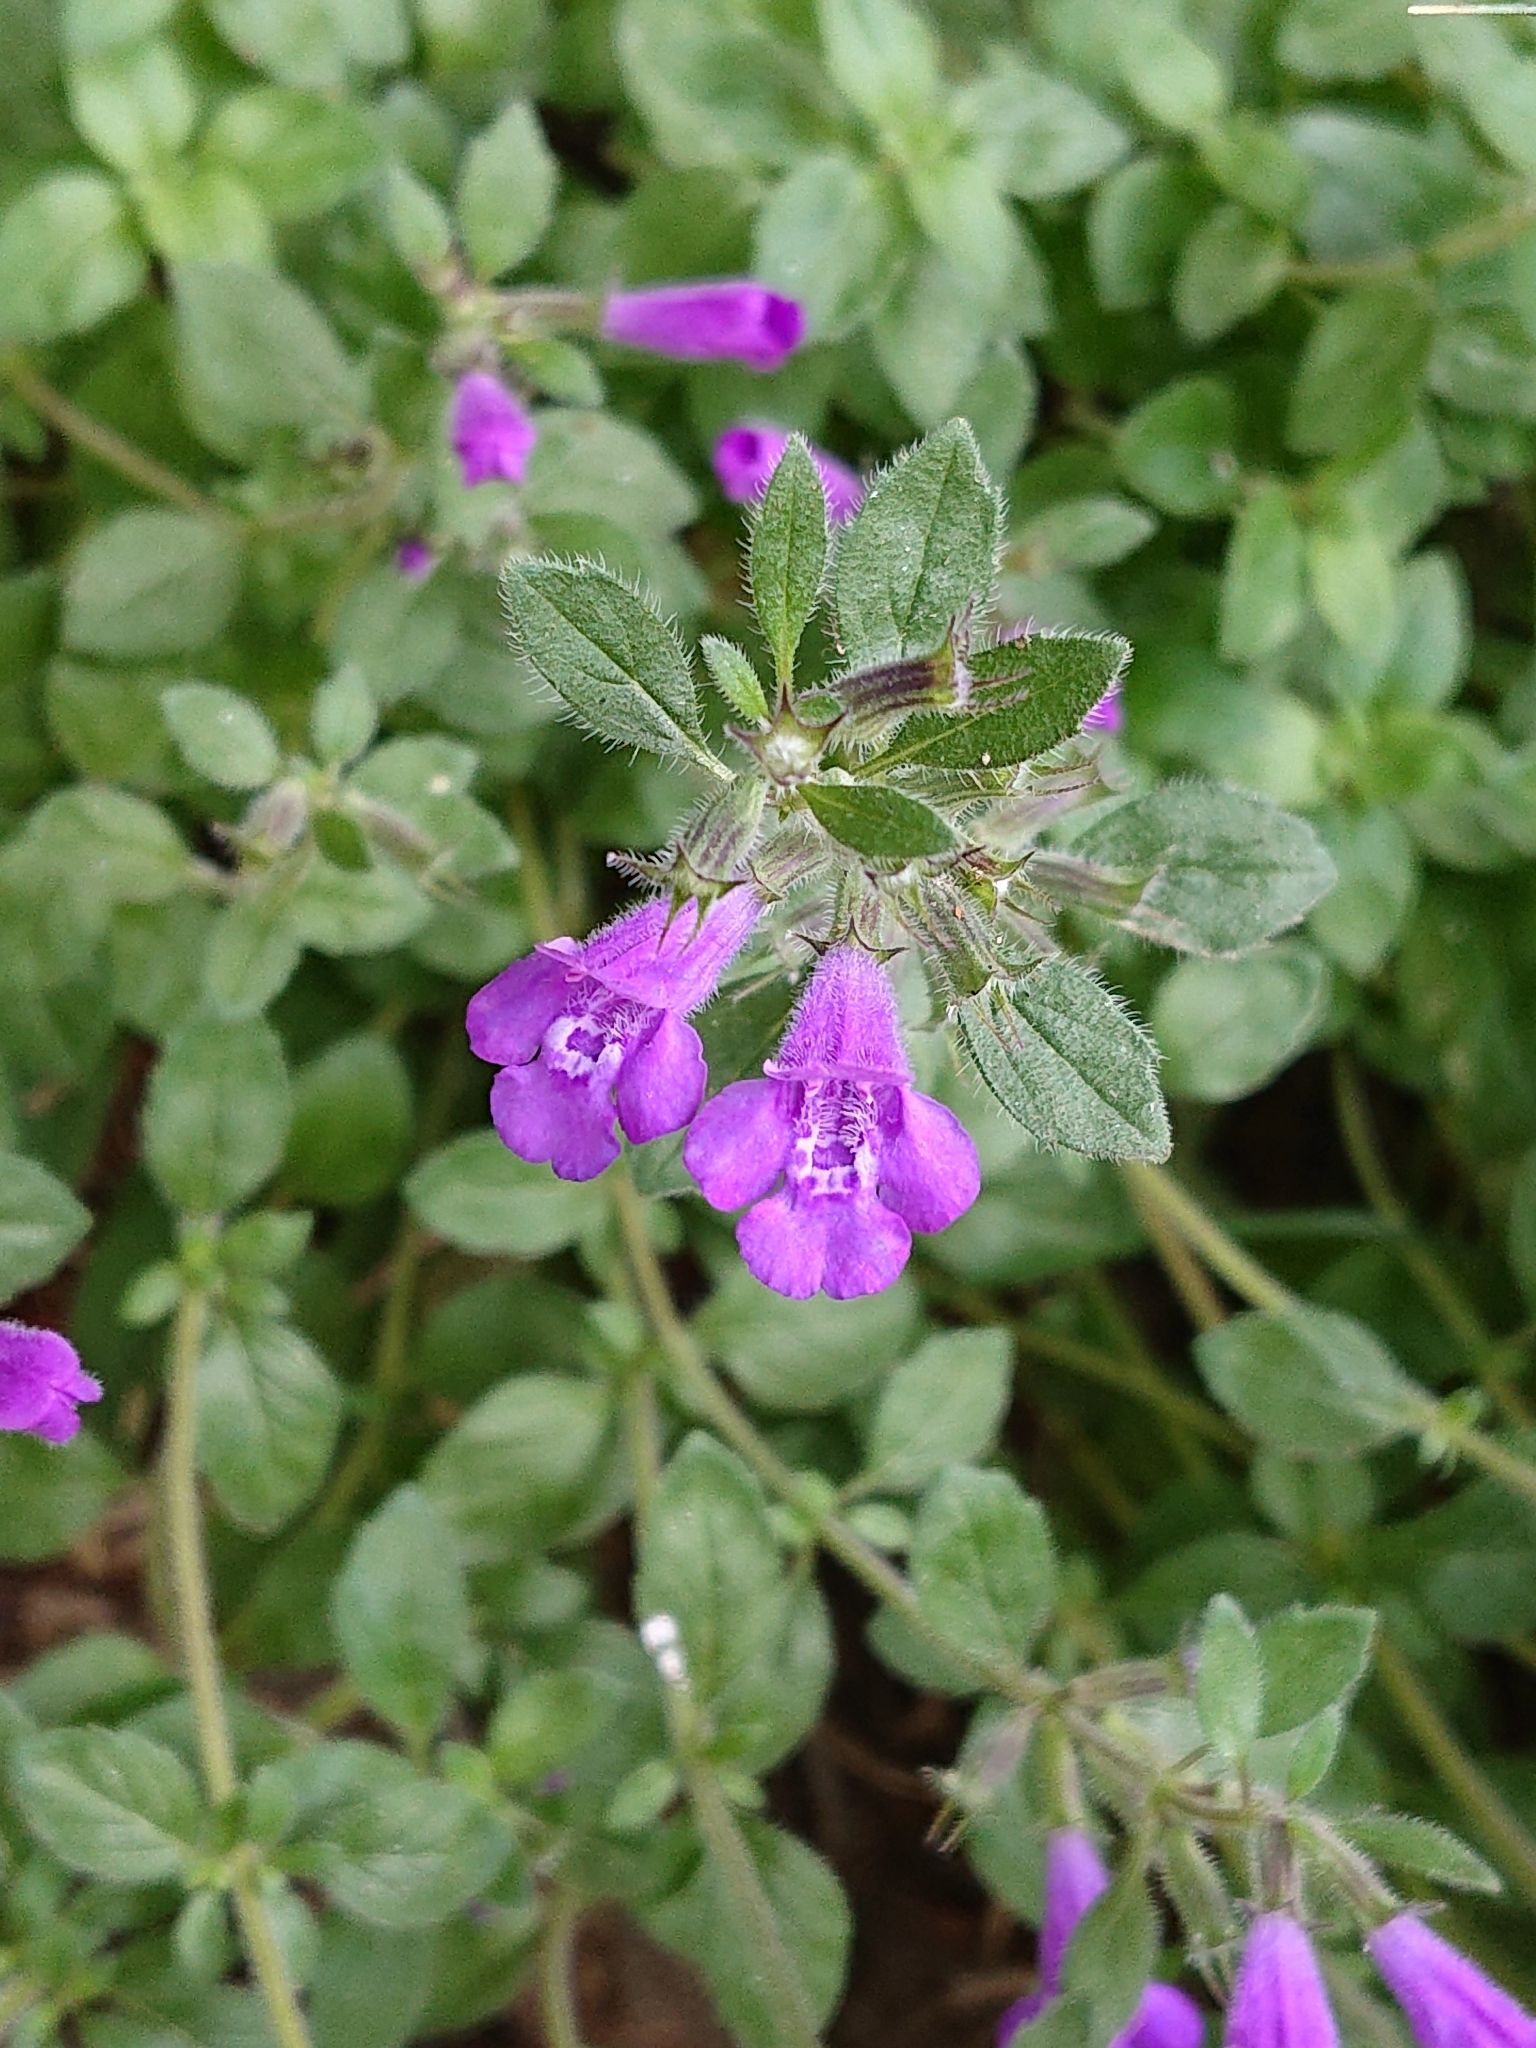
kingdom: Plantae
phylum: Tracheophyta
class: Magnoliopsida
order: Lamiales
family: Lamiaceae
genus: Clinopodium
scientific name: Clinopodium alpinum
